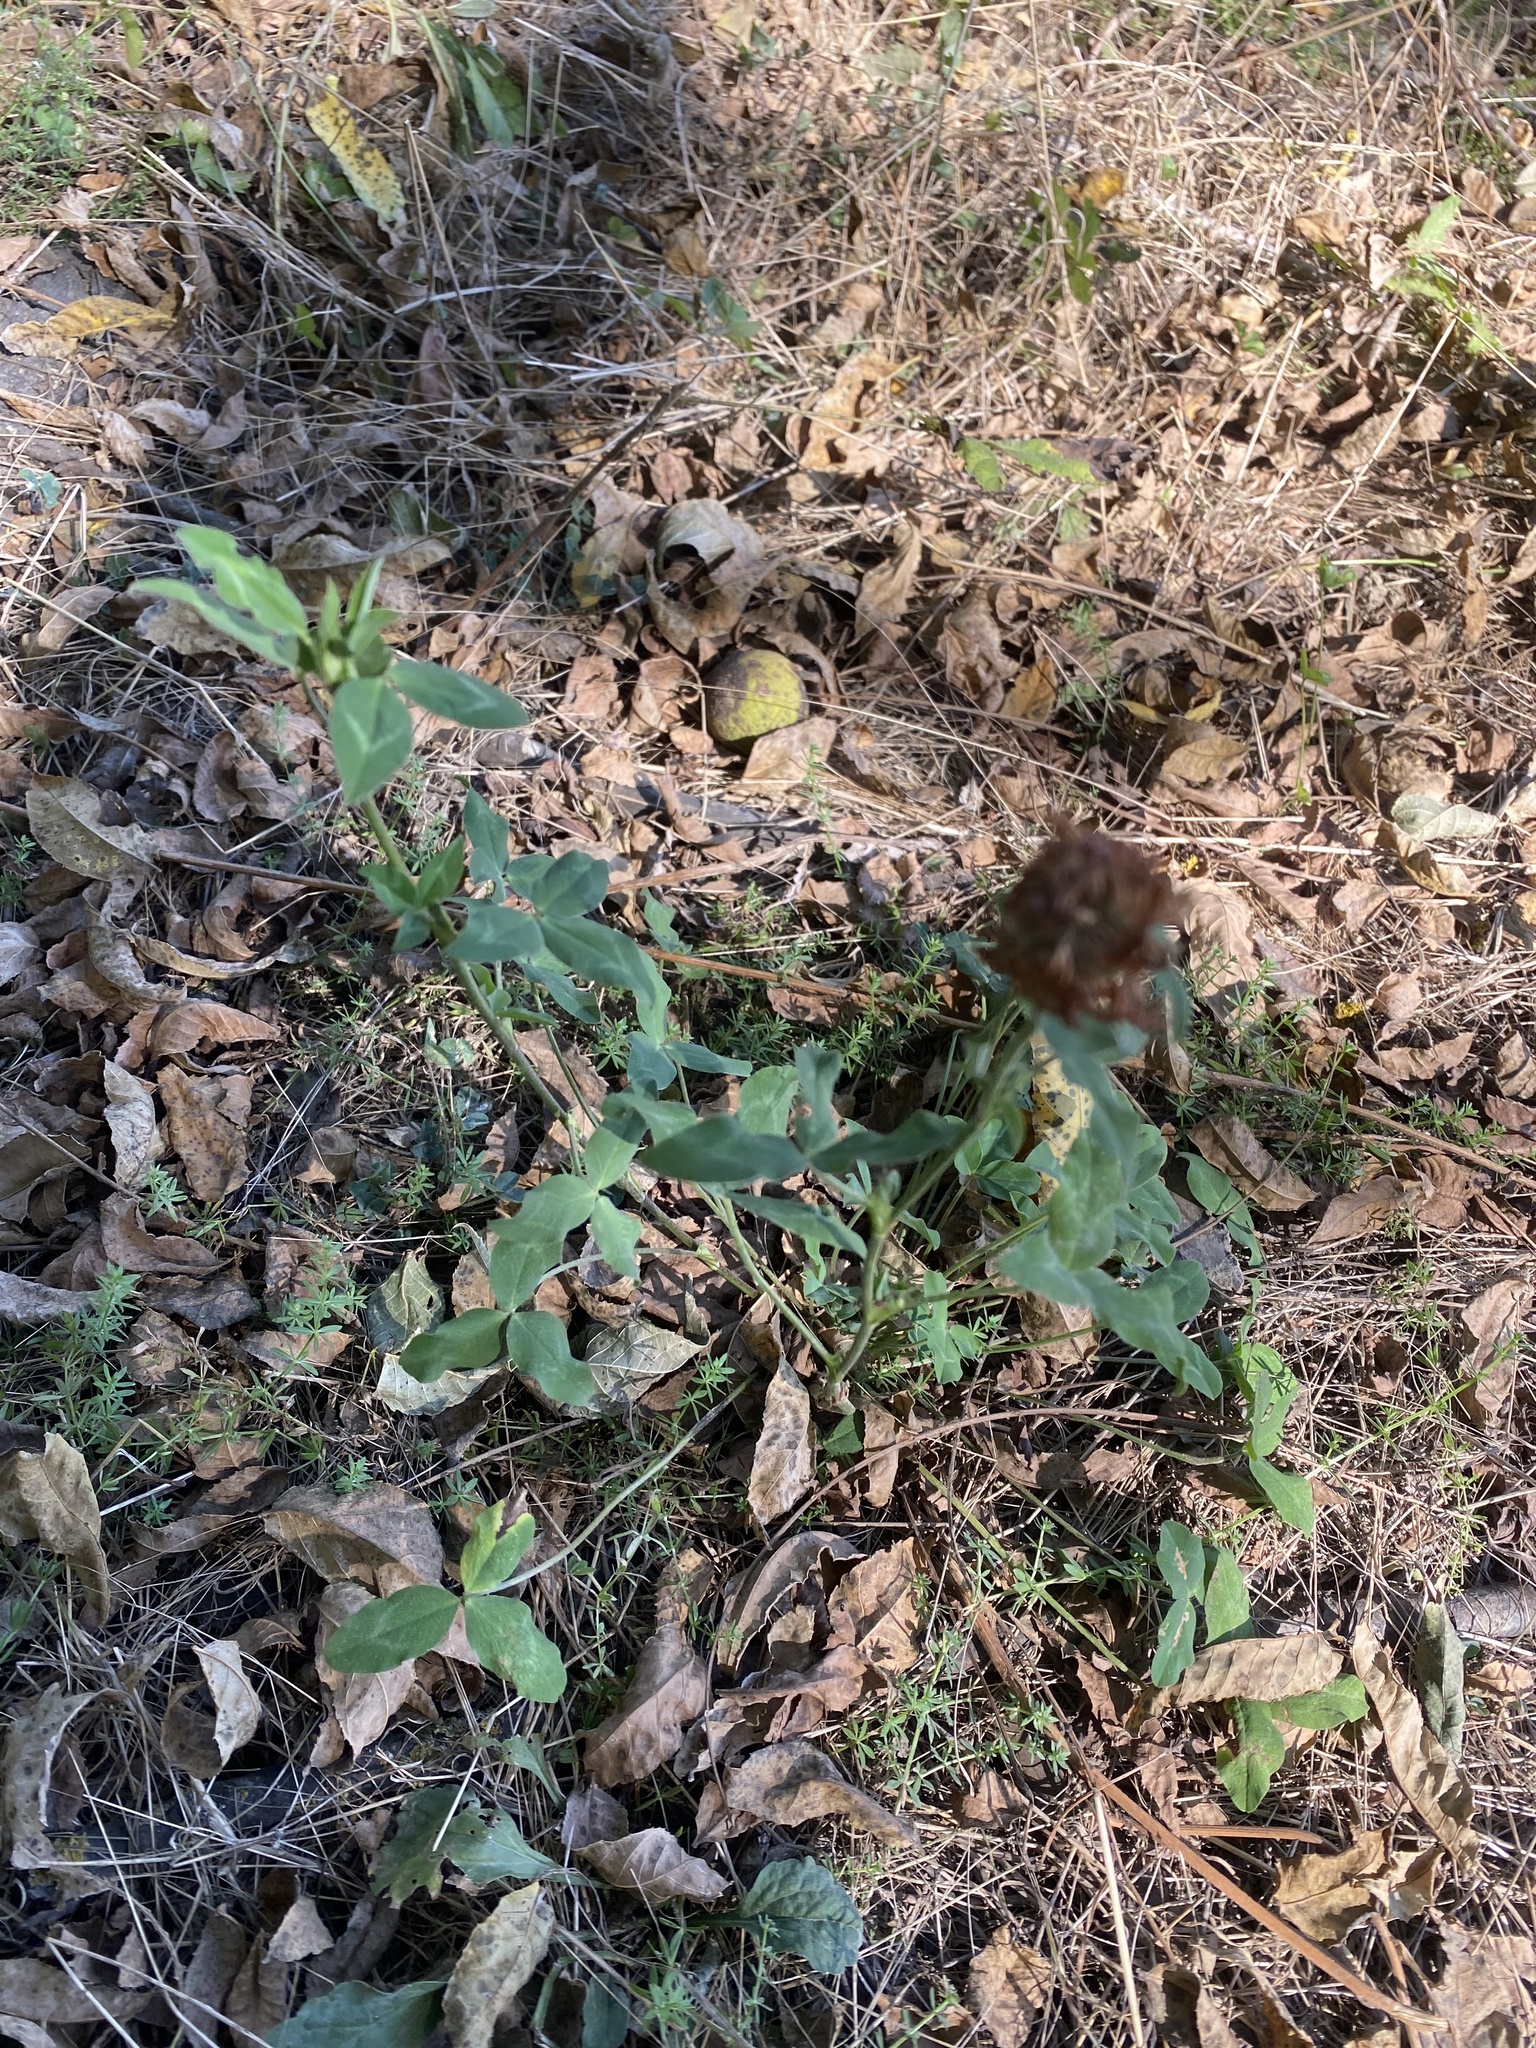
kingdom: Plantae
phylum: Tracheophyta
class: Magnoliopsida
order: Fabales
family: Fabaceae
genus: Trifolium
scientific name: Trifolium pratense
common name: Red clover
